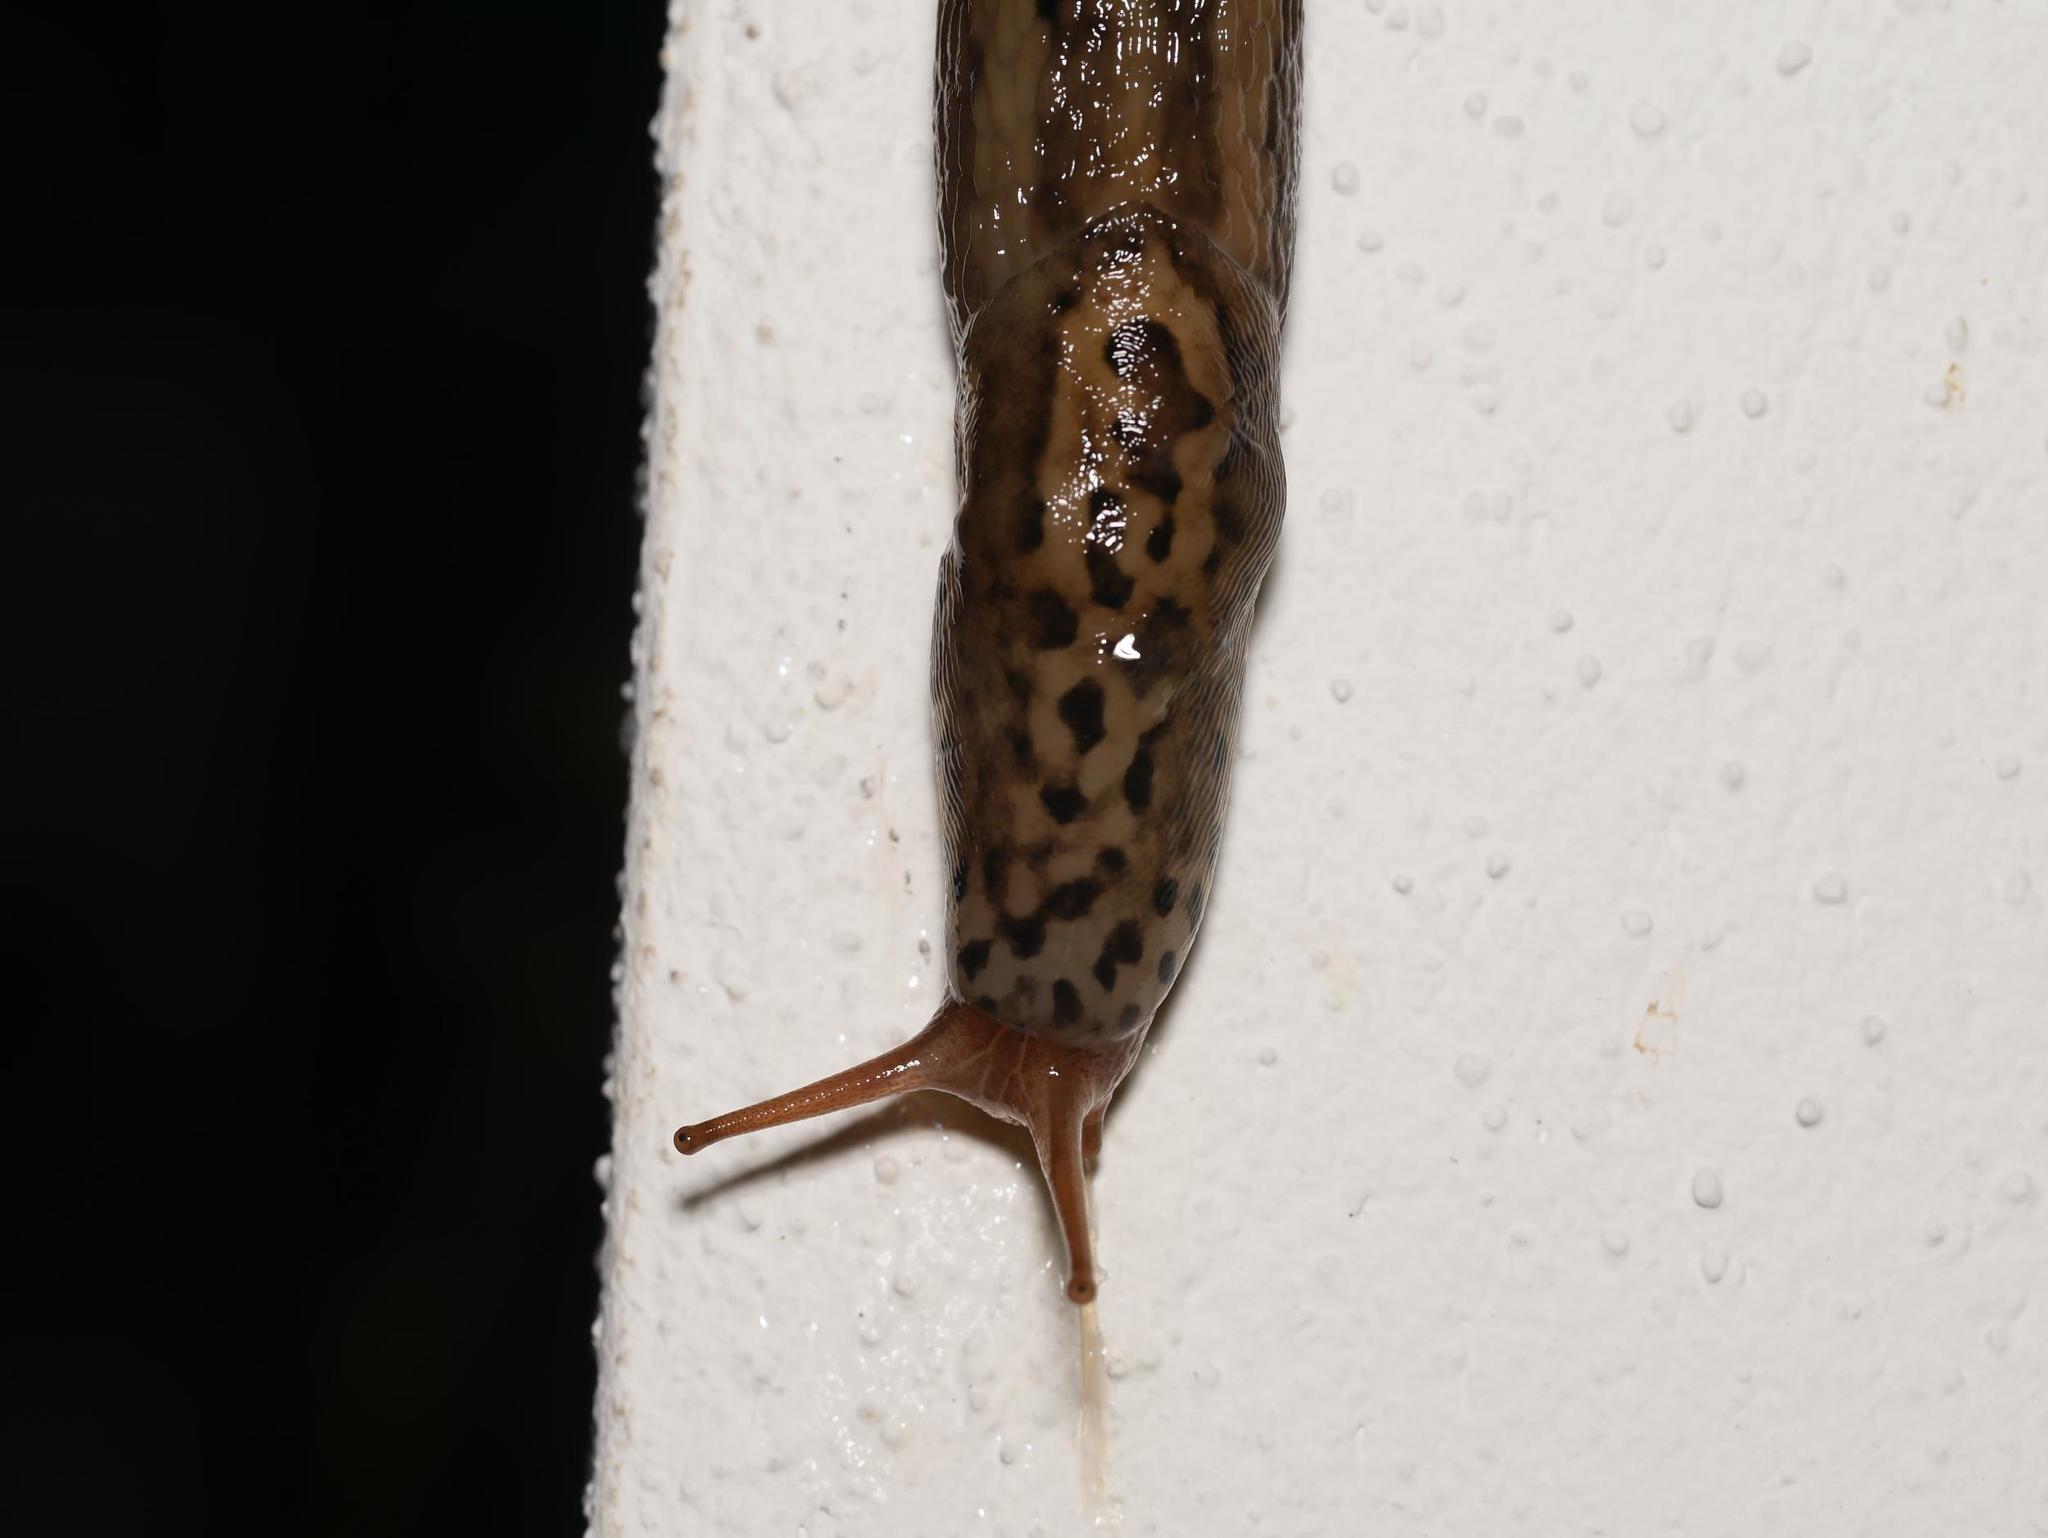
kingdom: Animalia
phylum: Mollusca
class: Gastropoda
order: Stylommatophora
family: Limacidae
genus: Limax
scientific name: Limax maximus
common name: Great grey slug
